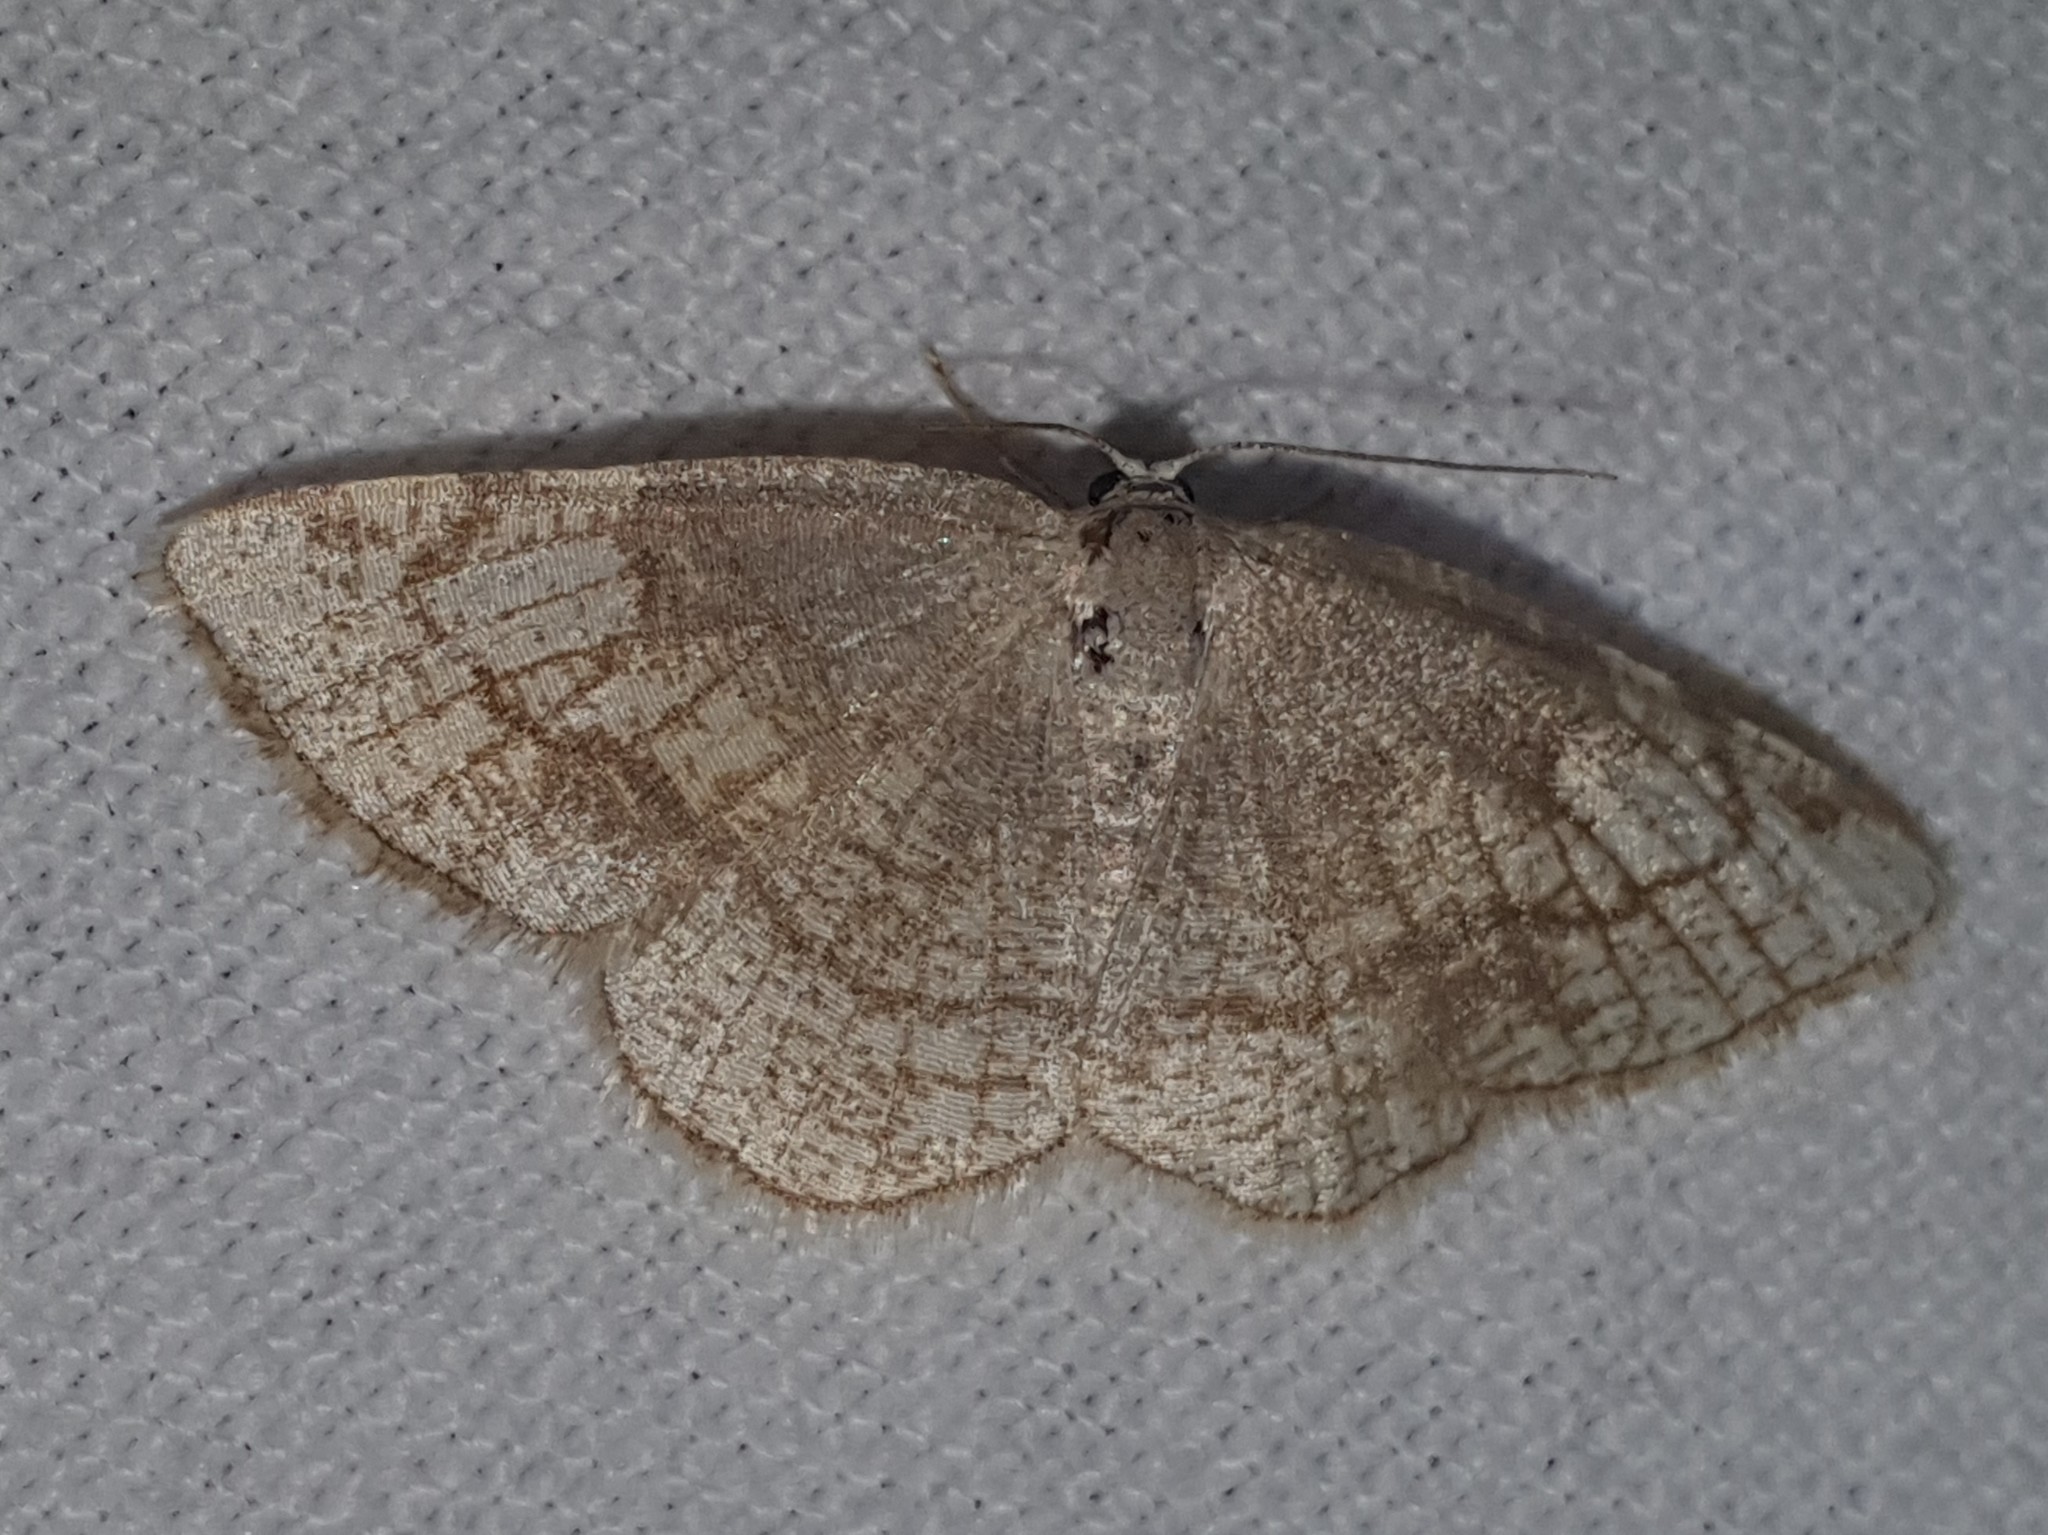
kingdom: Animalia
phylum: Arthropoda
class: Insecta
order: Lepidoptera
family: Geometridae
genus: Stegania
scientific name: Stegania trimaculata
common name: Dorset cream wave
